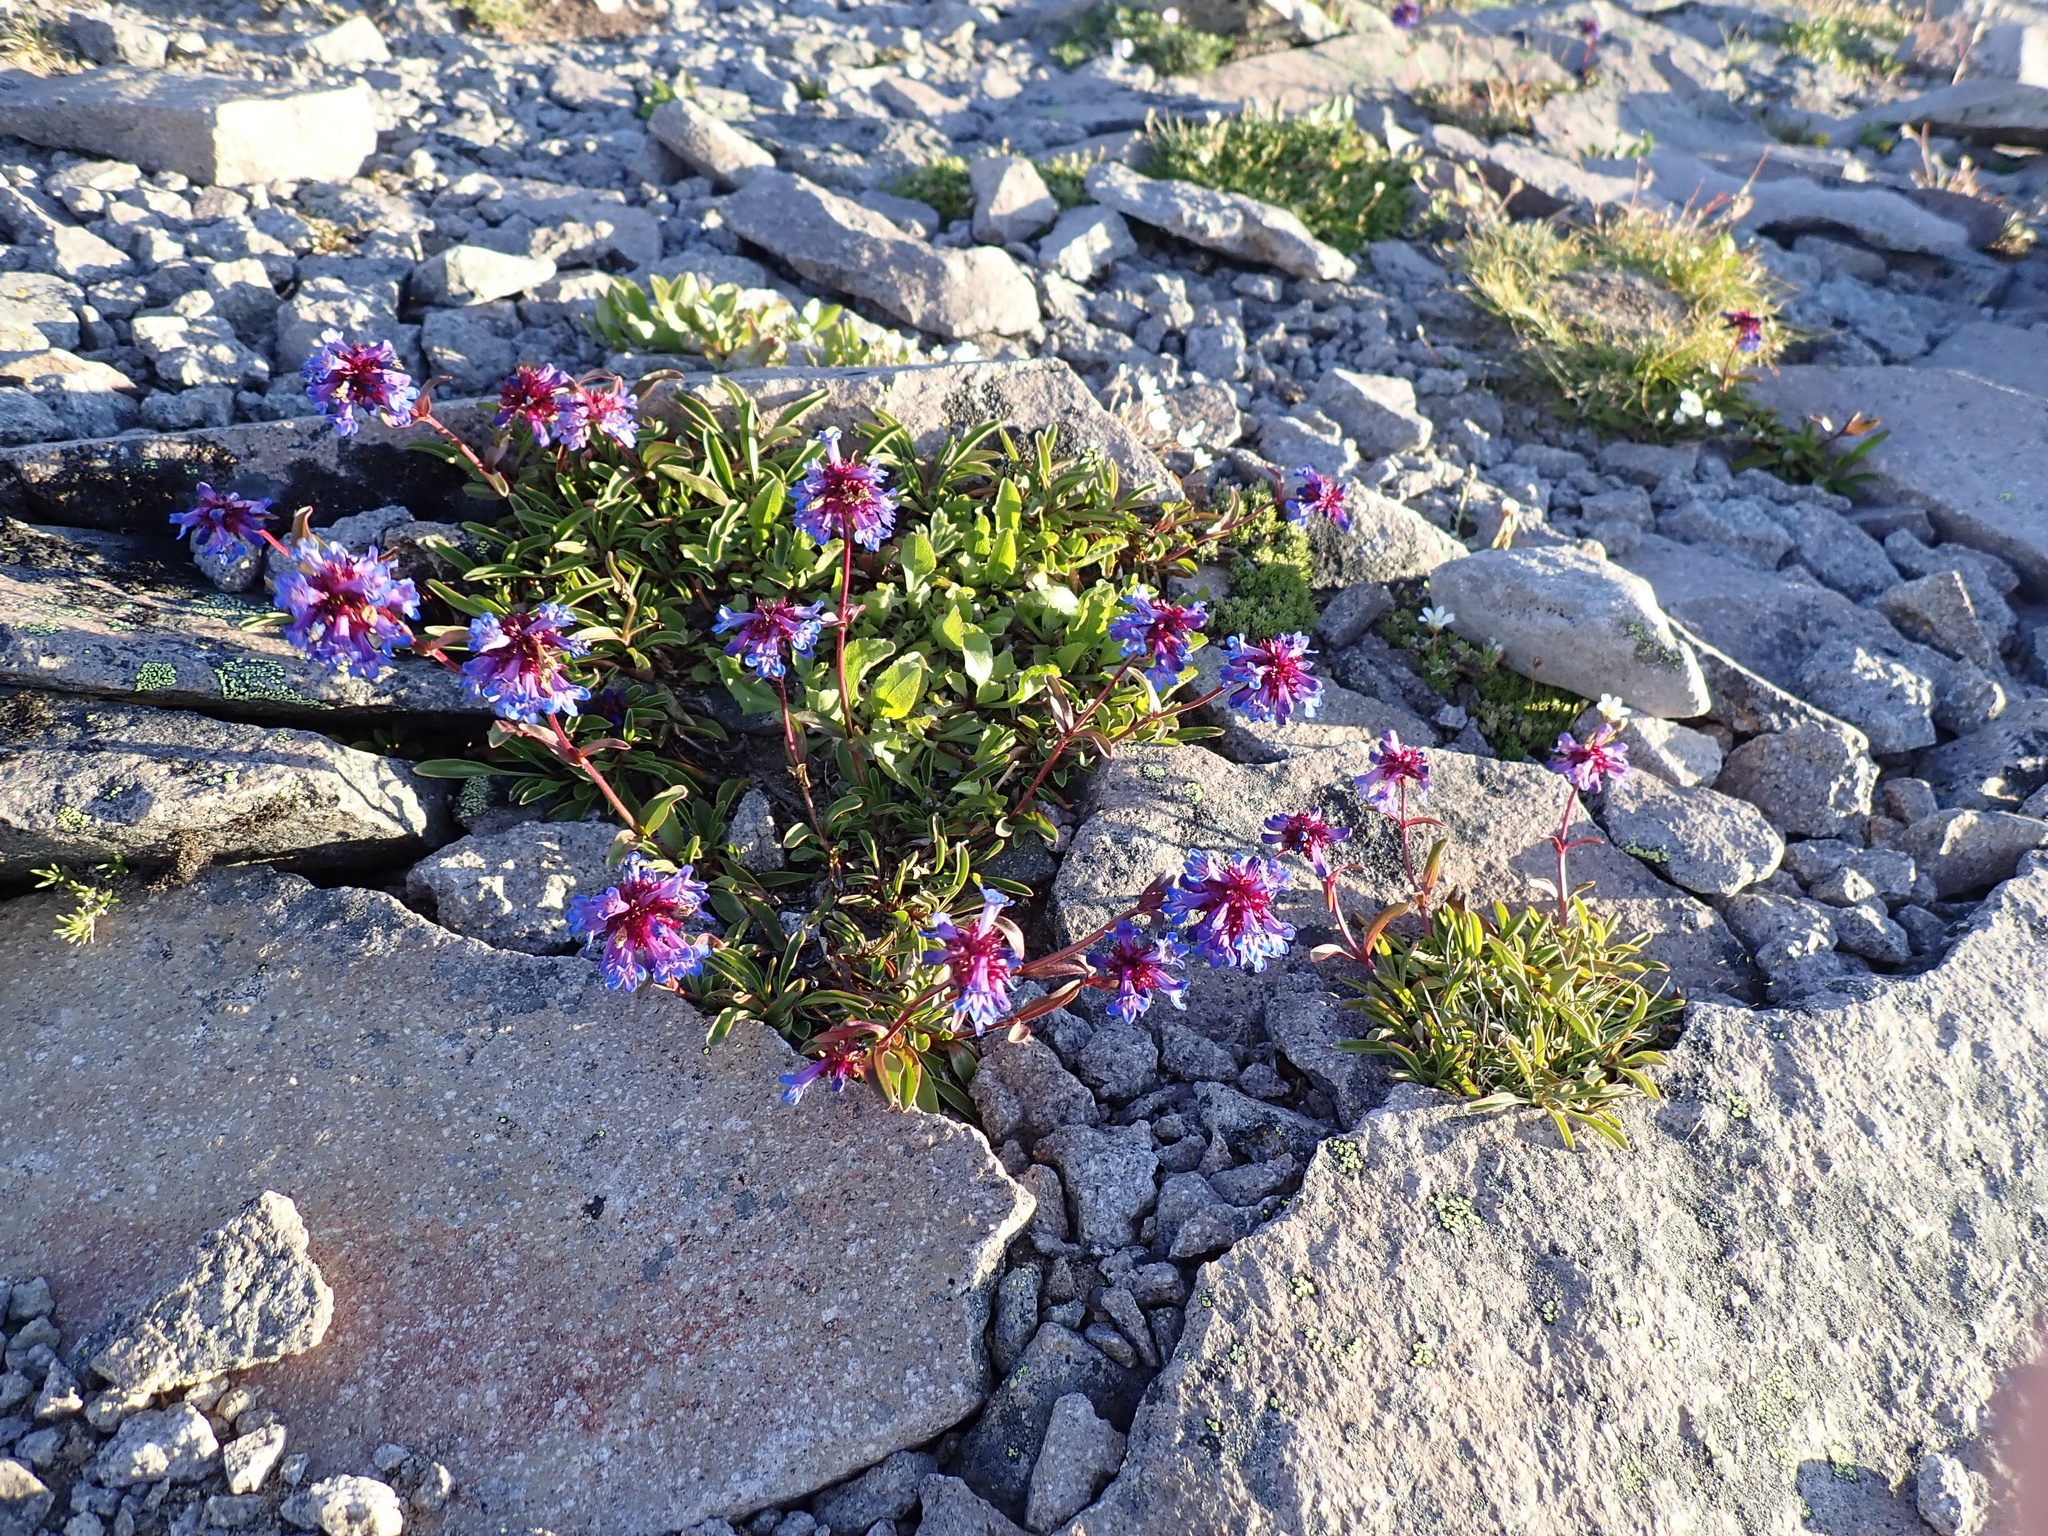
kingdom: Plantae
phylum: Tracheophyta
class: Magnoliopsida
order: Lamiales
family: Plantaginaceae
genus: Penstemon
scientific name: Penstemon procerus
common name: Small-flower penstemon
